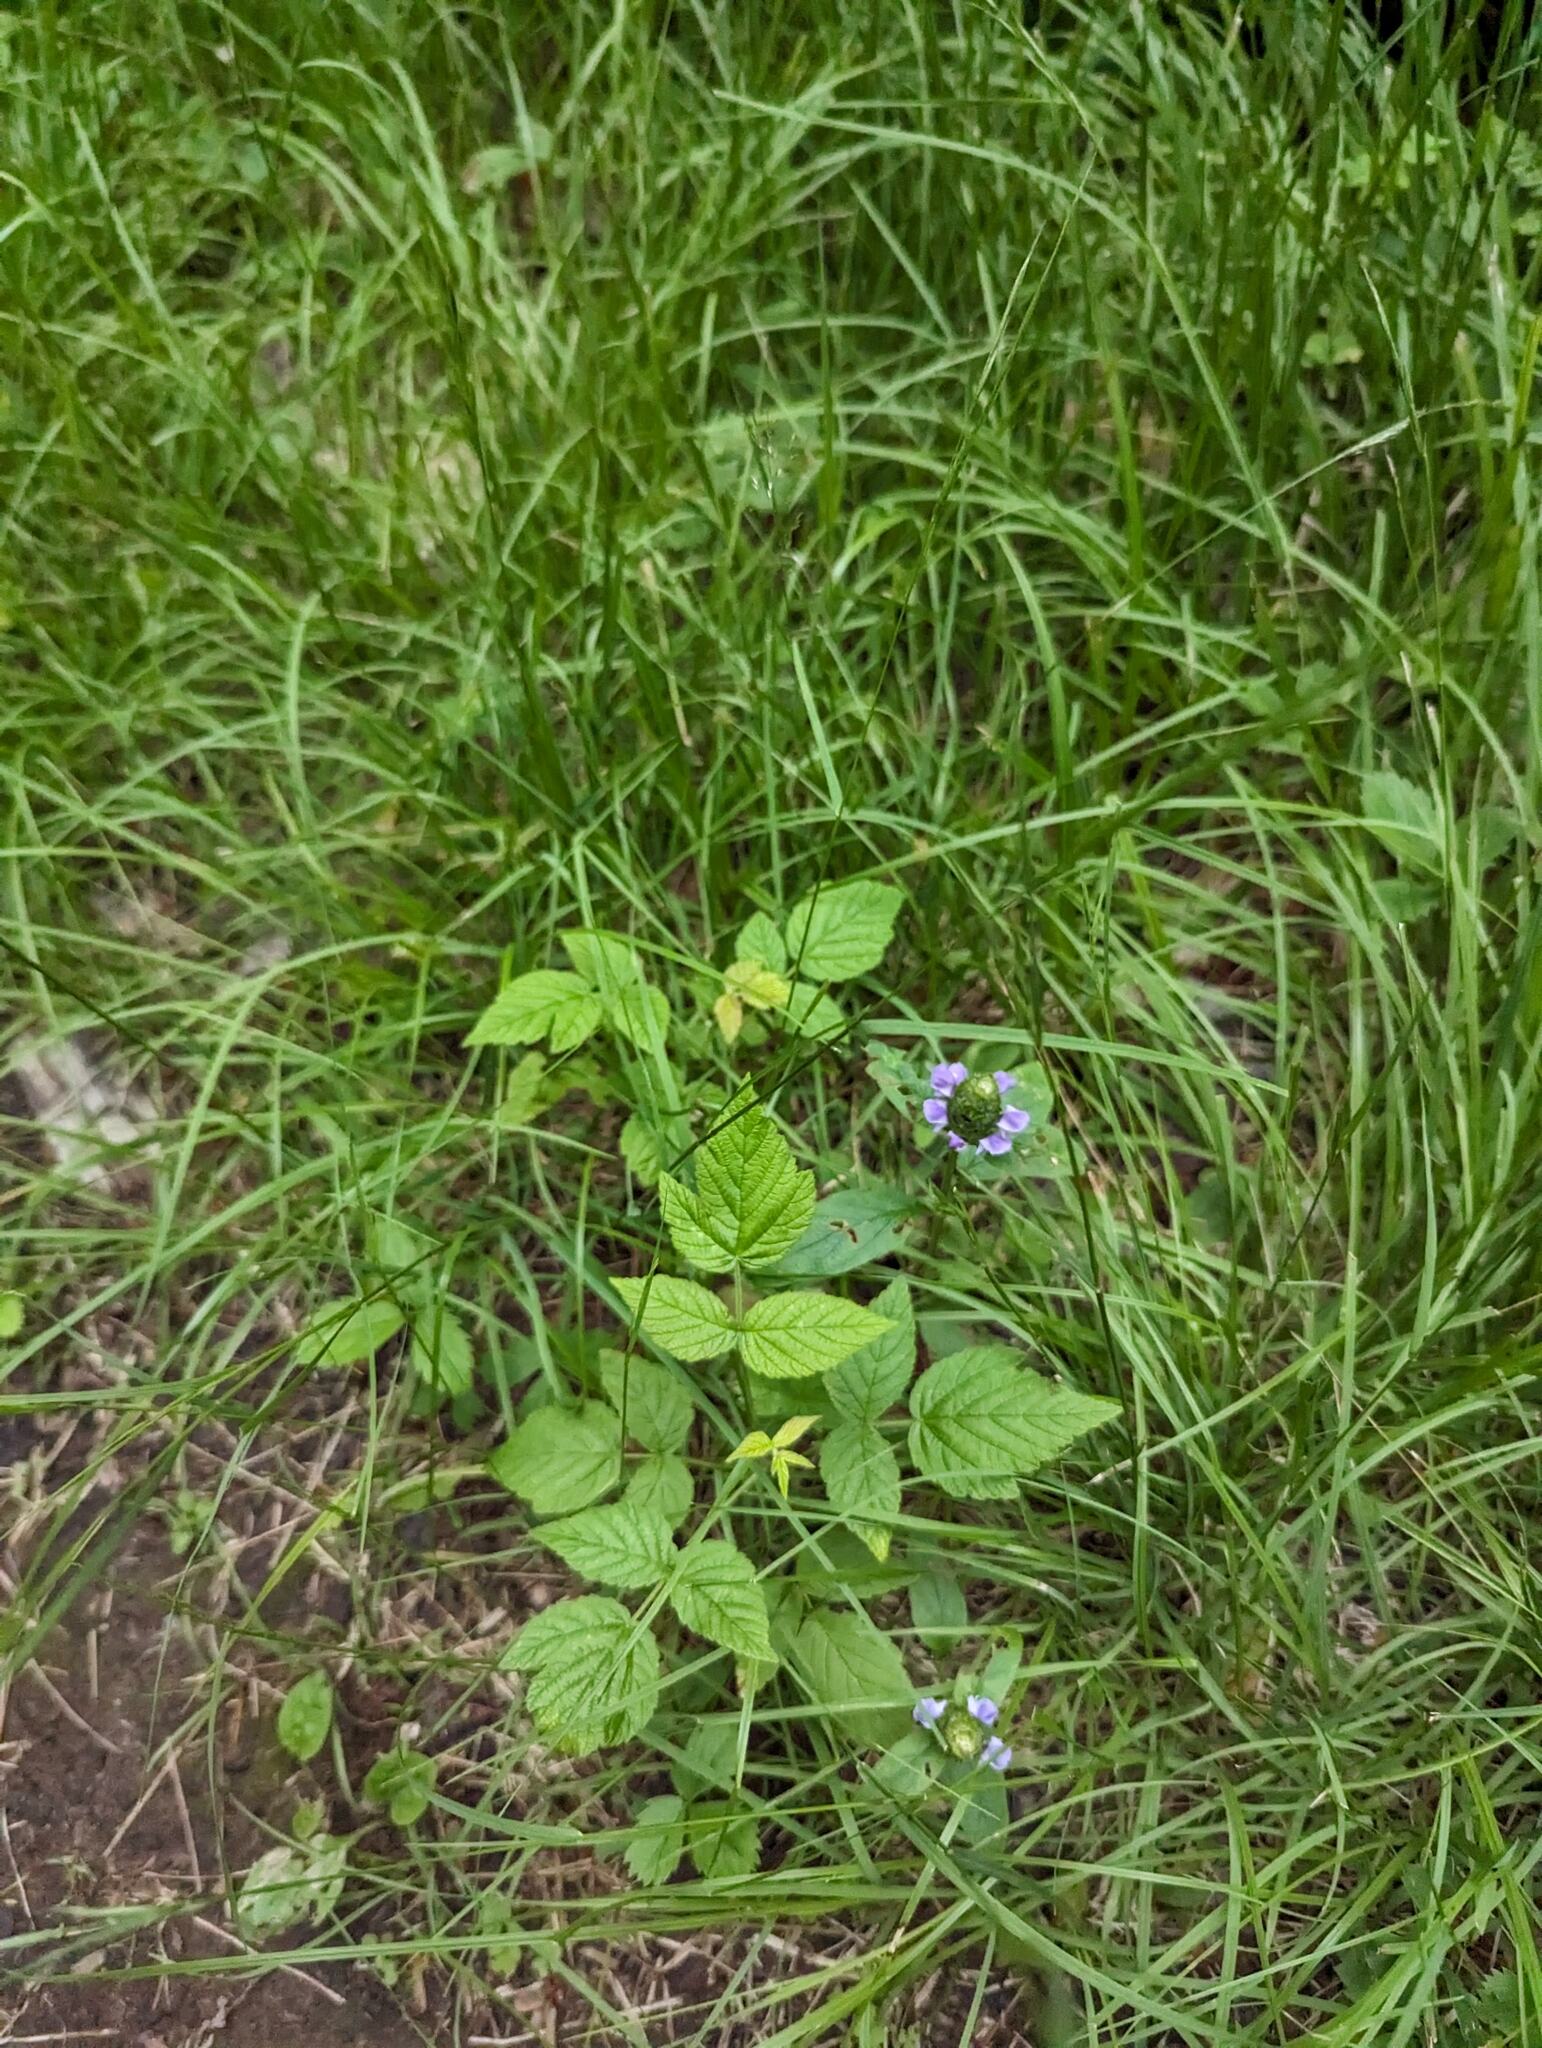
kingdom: Plantae
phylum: Tracheophyta
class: Magnoliopsida
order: Lamiales
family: Lamiaceae
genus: Prunella
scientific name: Prunella vulgaris
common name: Heal-all
